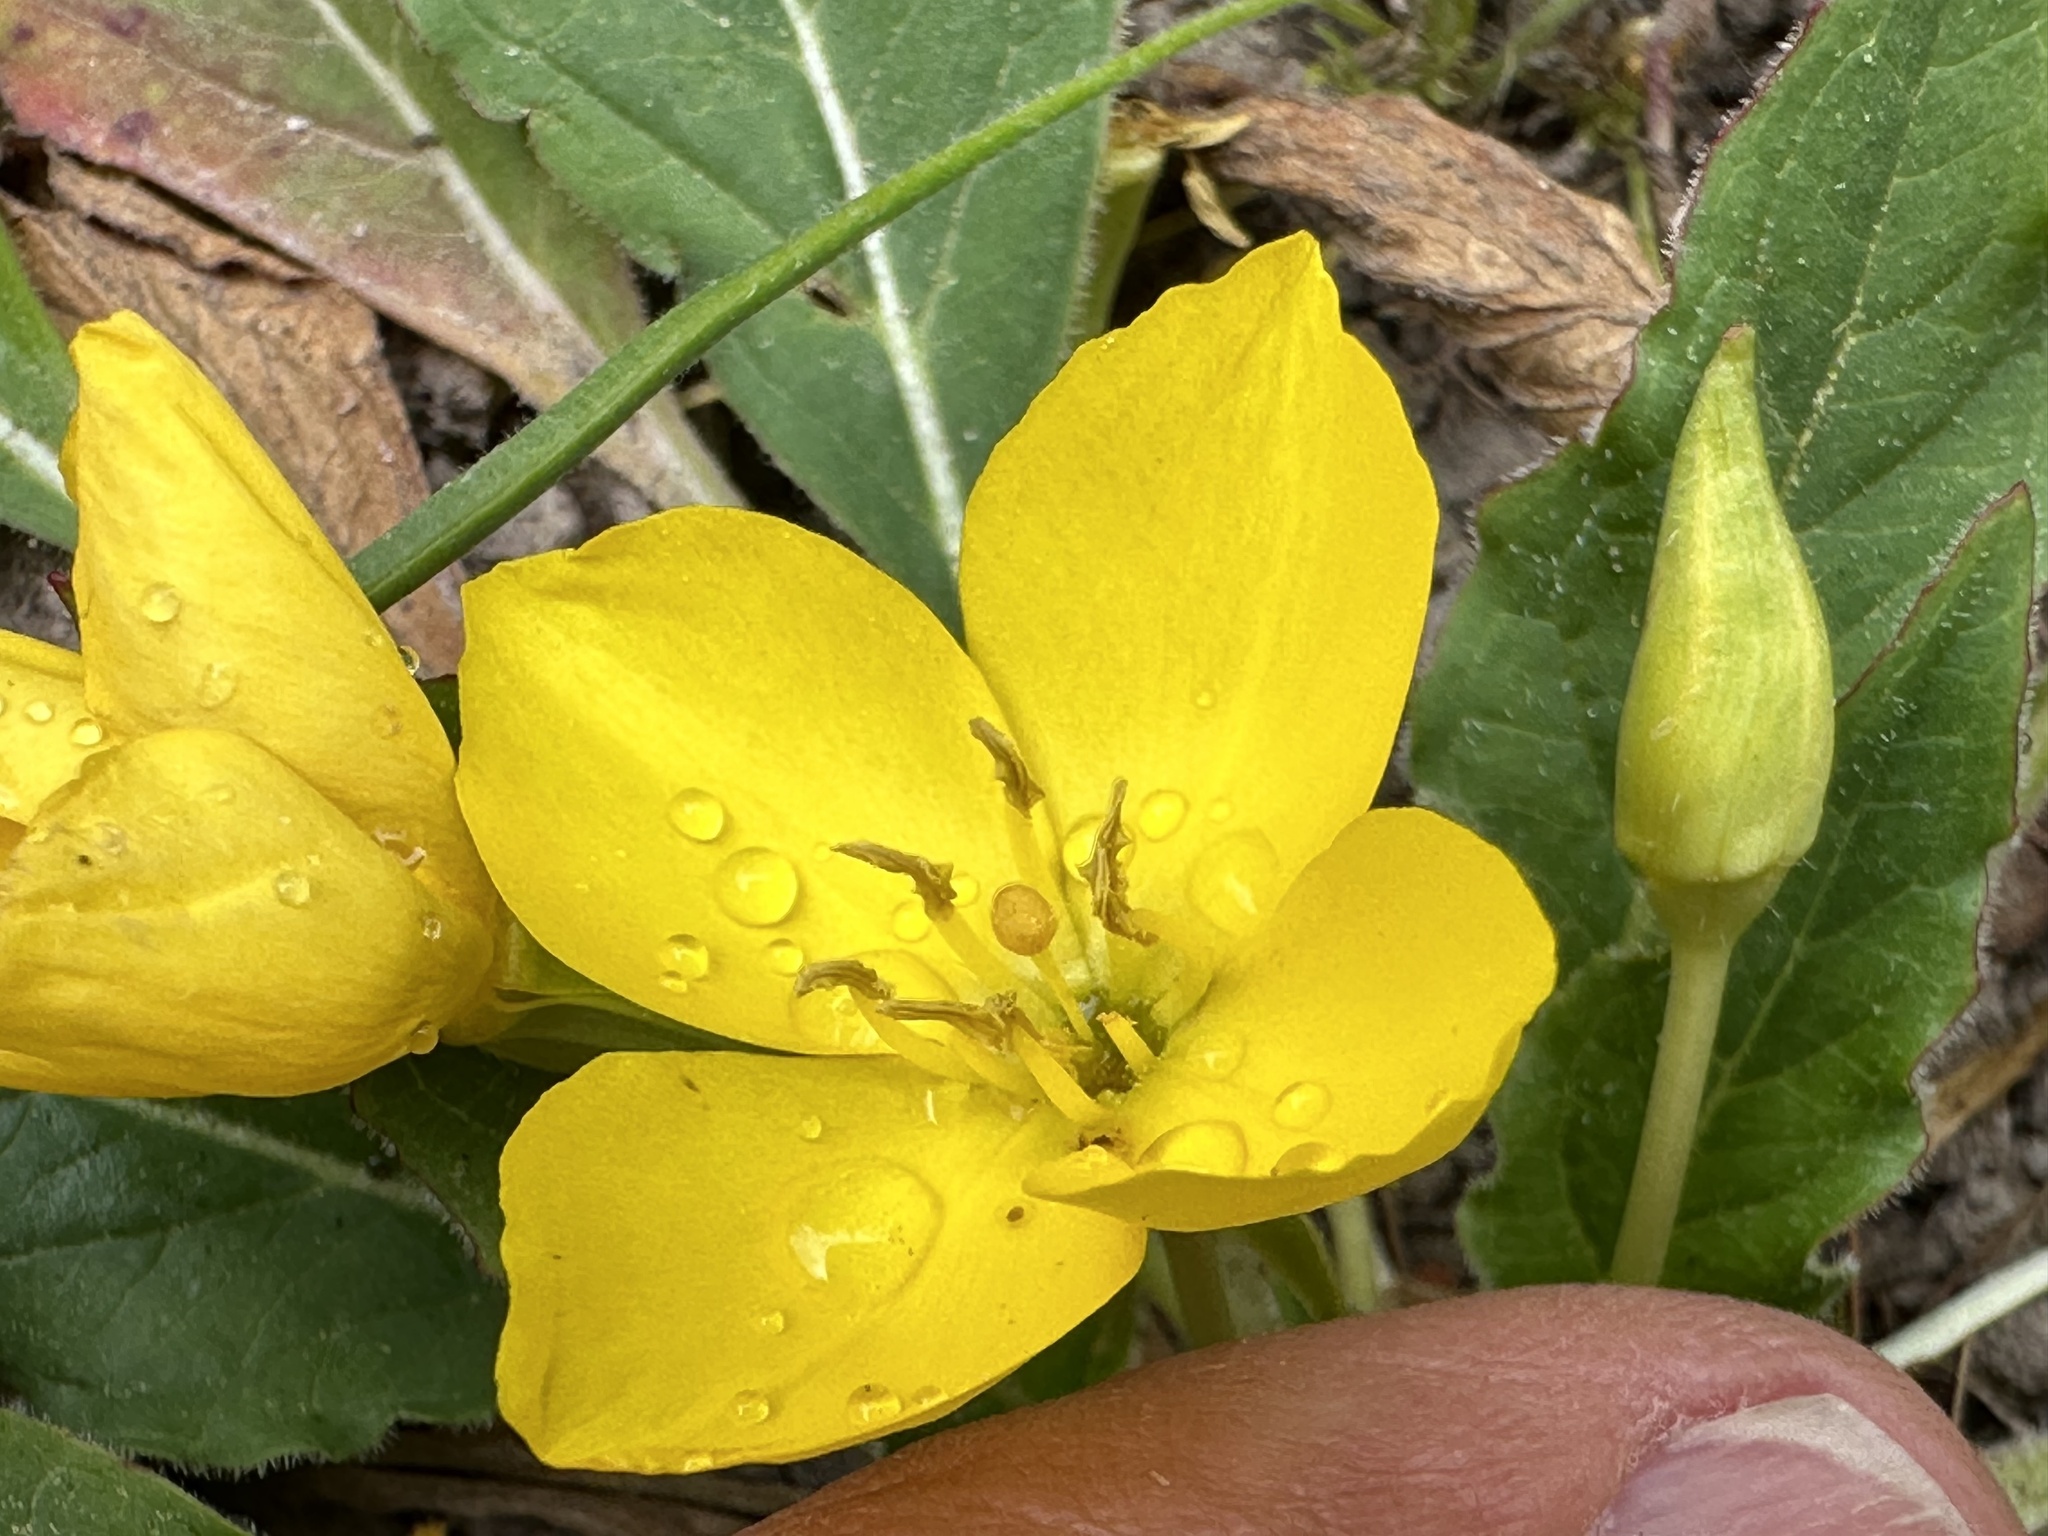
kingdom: Plantae
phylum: Tracheophyta
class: Magnoliopsida
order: Myrtales
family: Onagraceae
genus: Taraxia
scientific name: Taraxia ovata
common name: Goldeneggs
